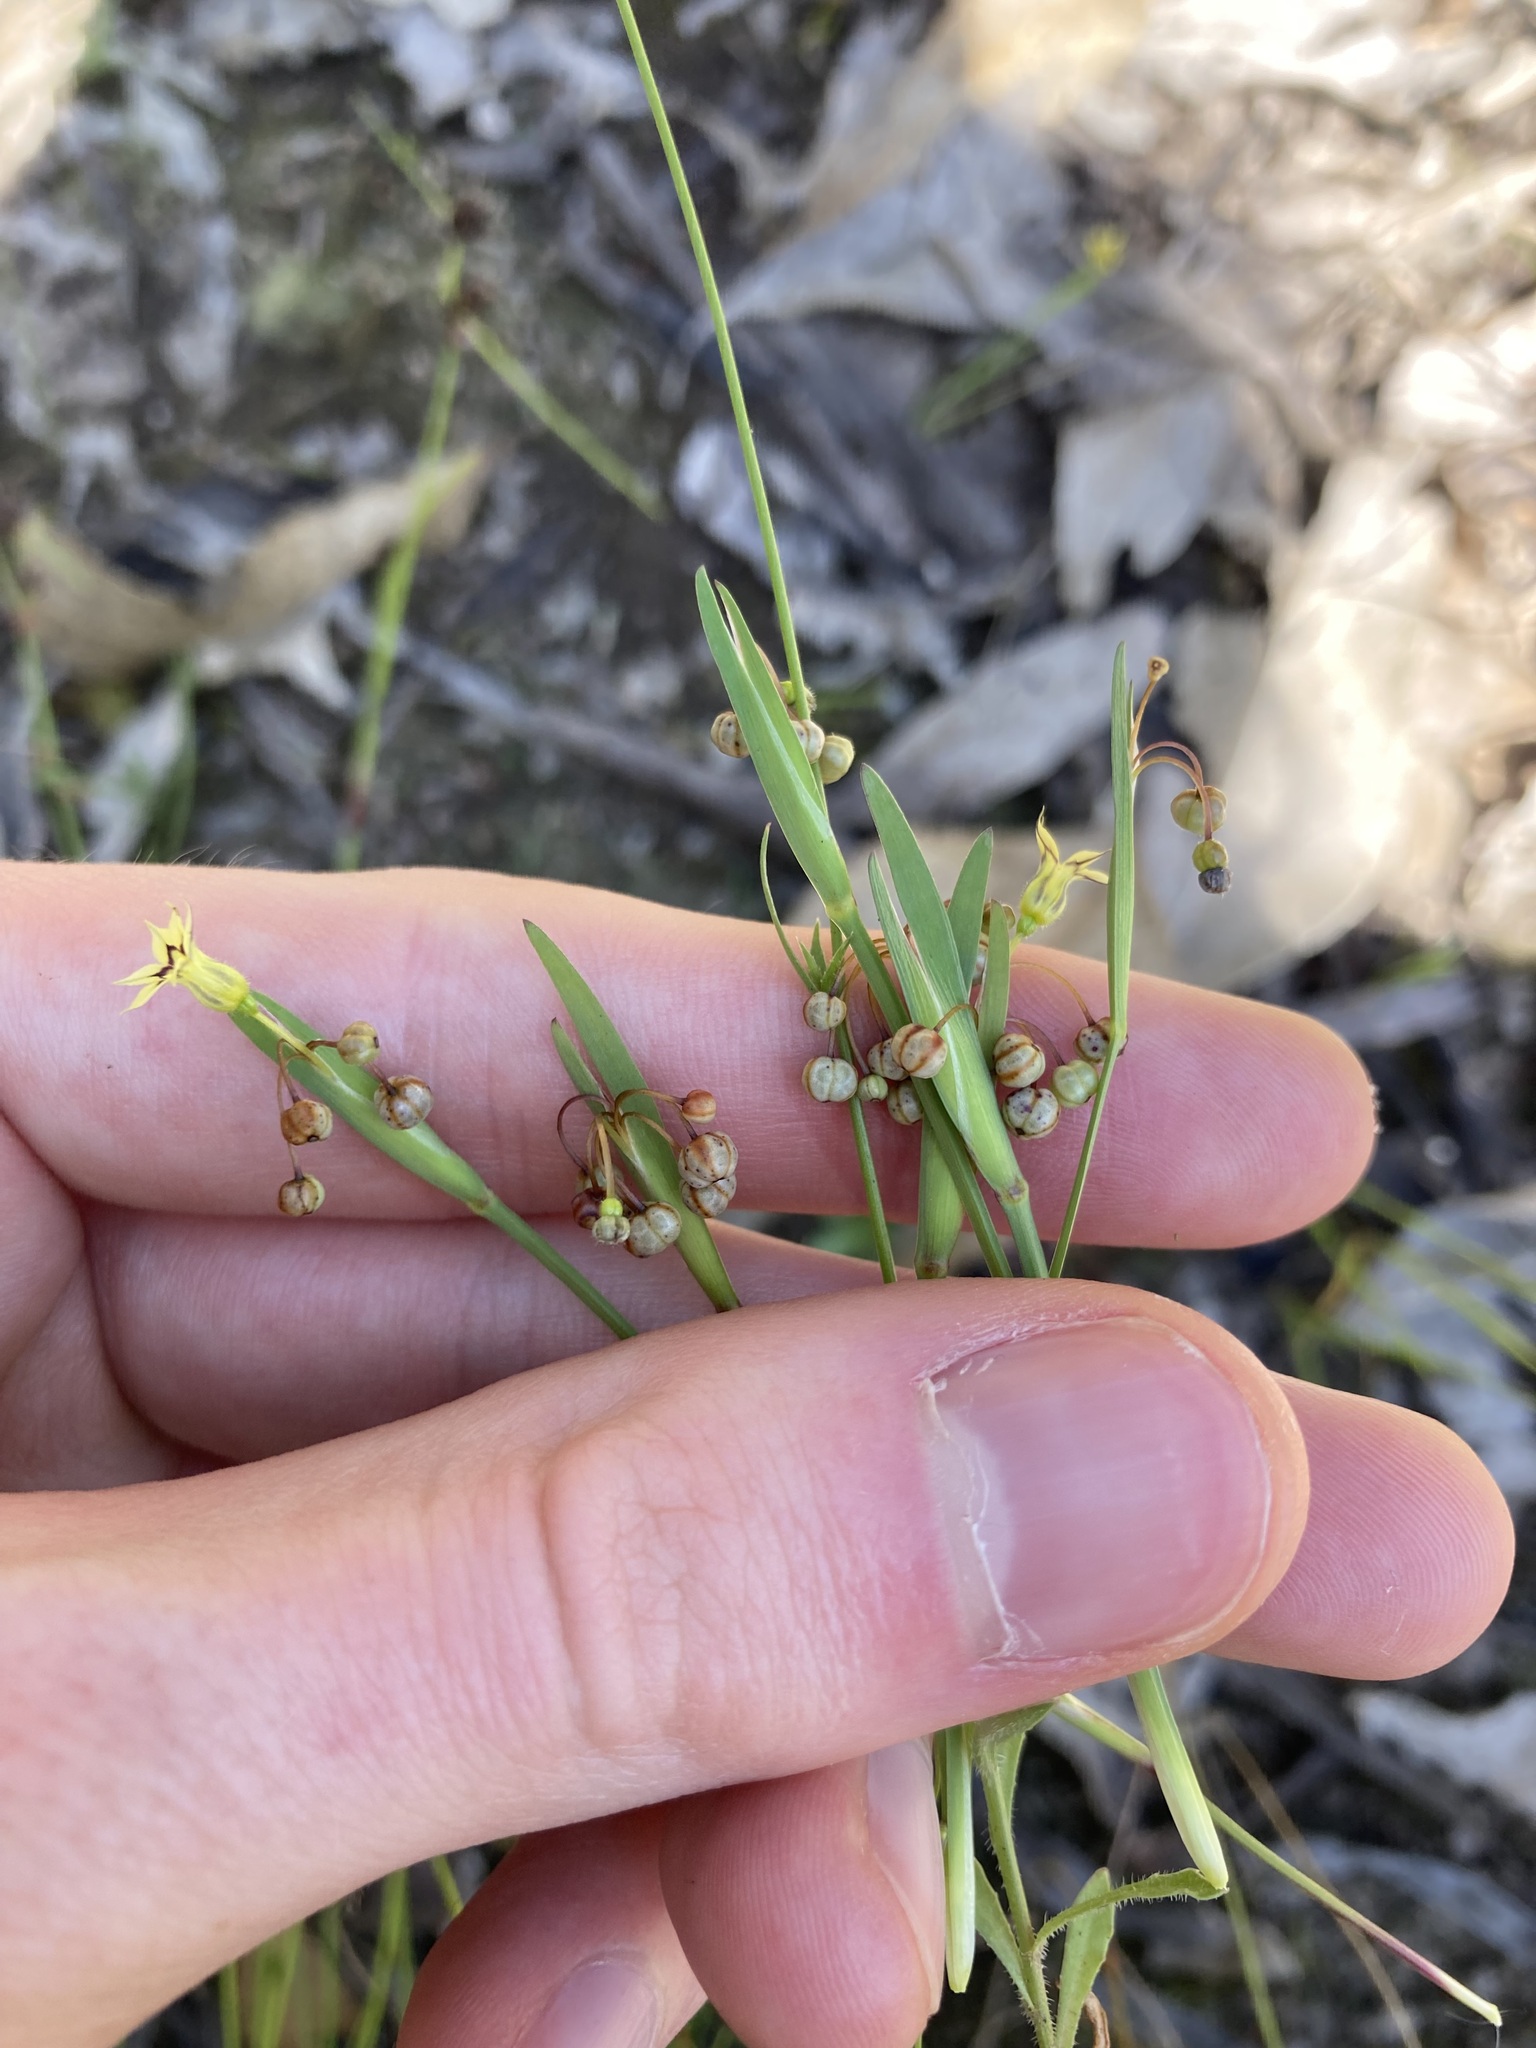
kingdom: Plantae
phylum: Tracheophyta
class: Liliopsida
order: Asparagales
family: Iridaceae
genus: Sisyrinchium
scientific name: Sisyrinchium micranthum
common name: Bermuda pigroot
